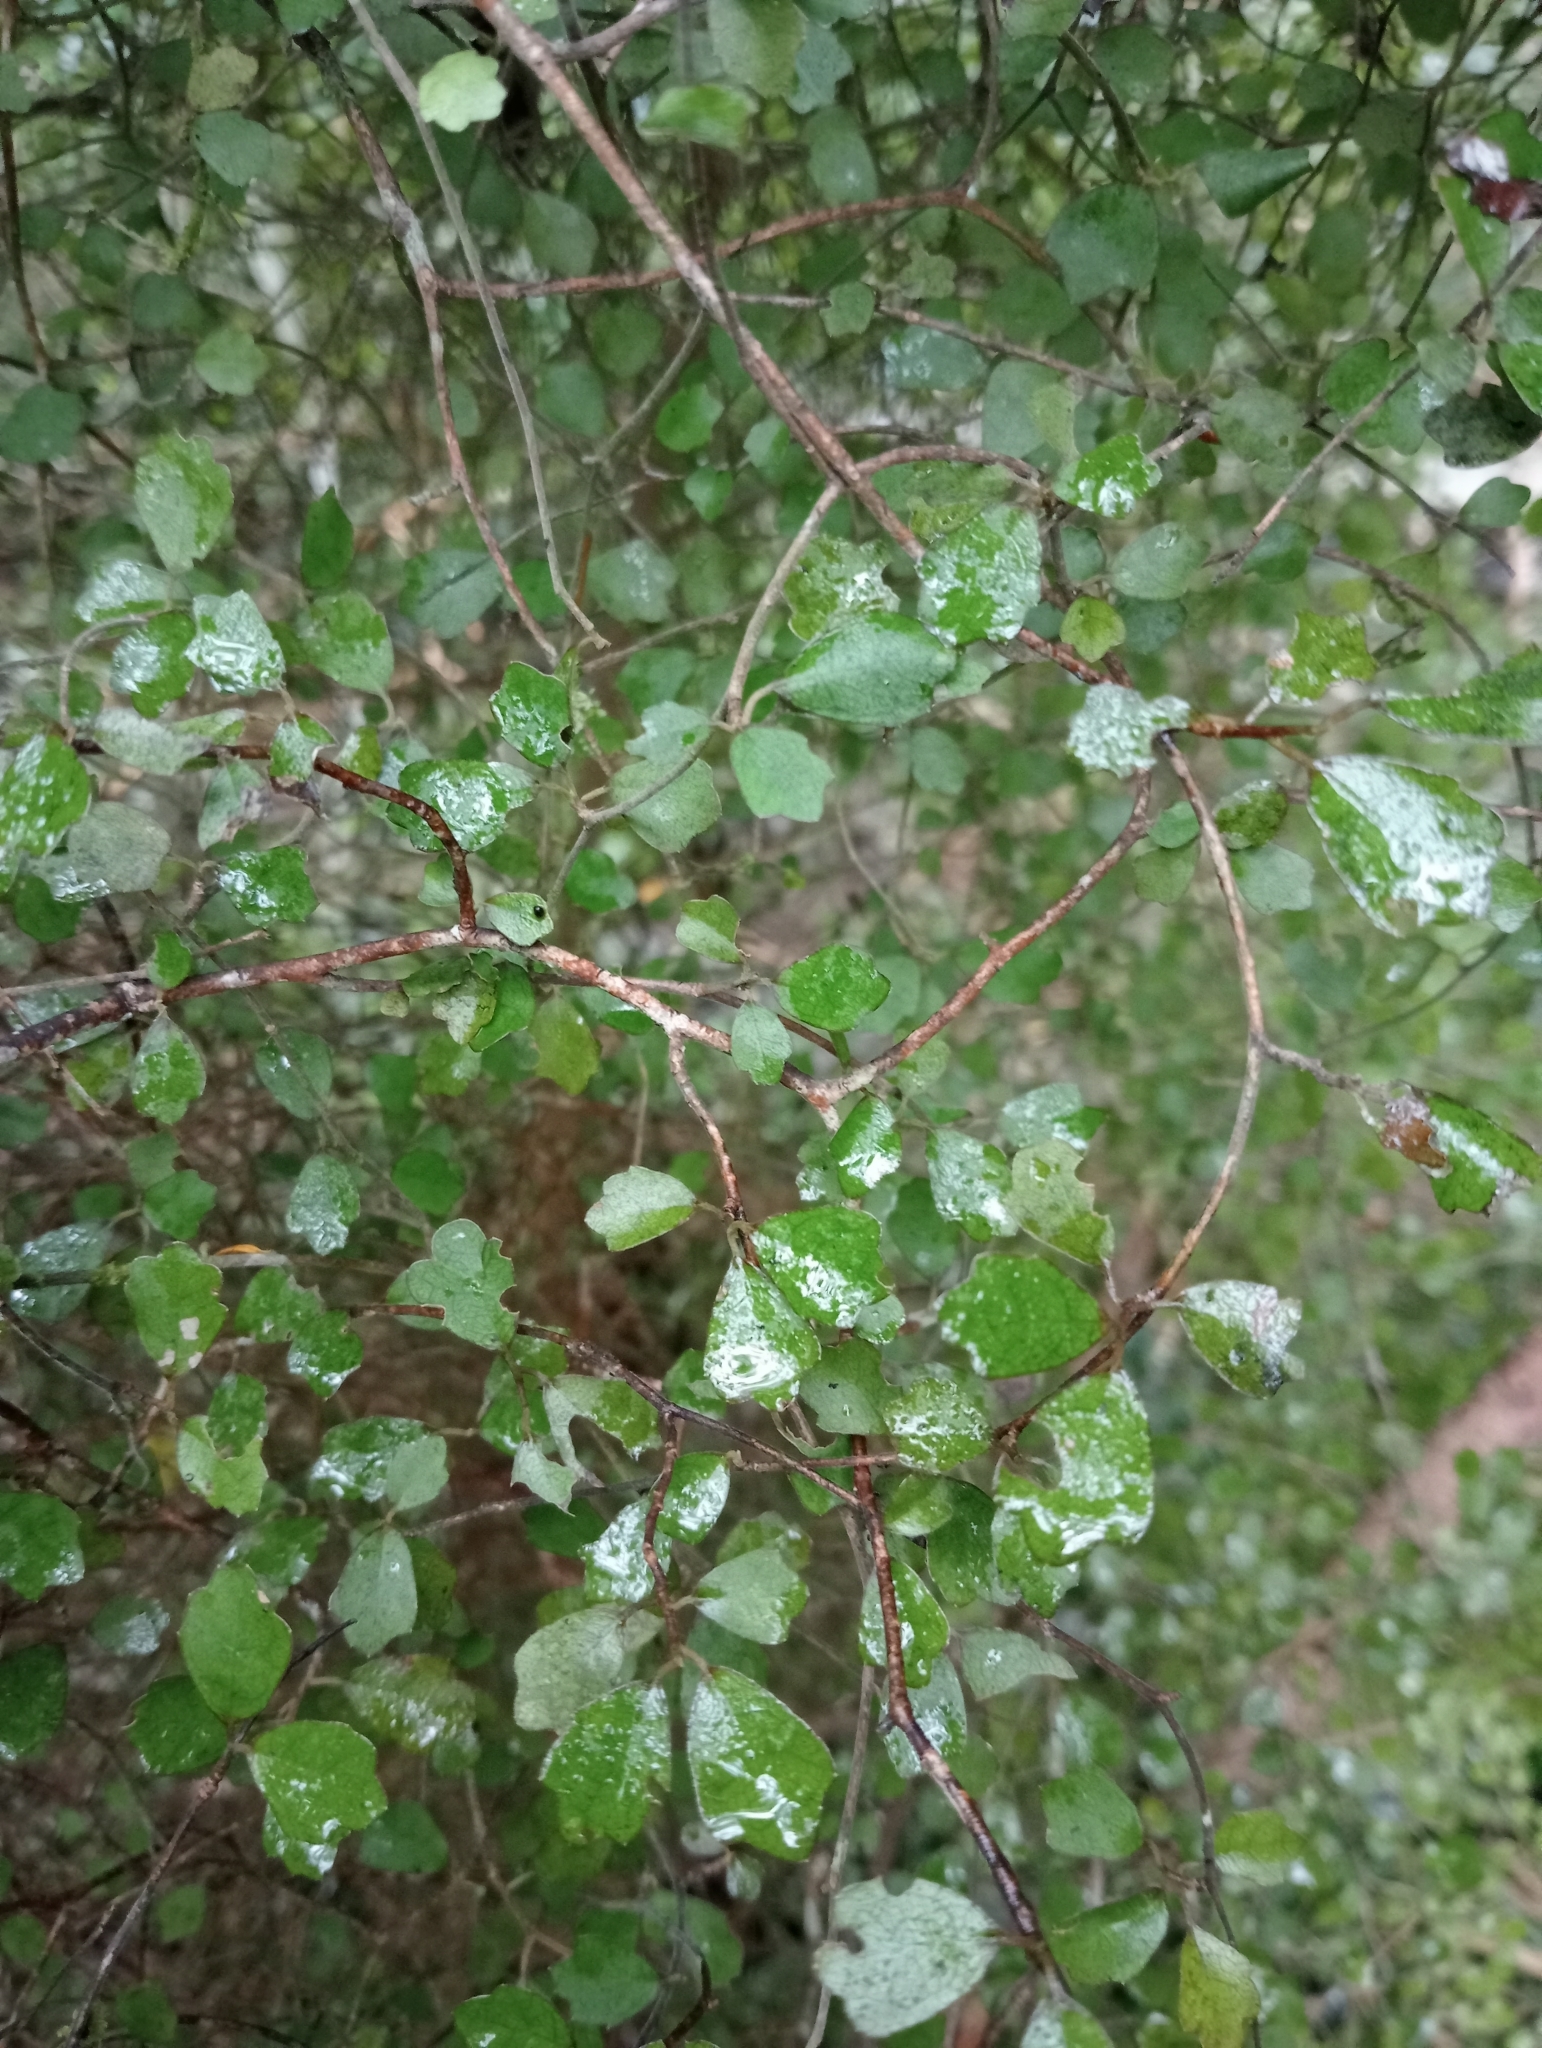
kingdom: Plantae
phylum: Tracheophyta
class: Magnoliopsida
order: Apiales
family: Pennantiaceae
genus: Pennantia
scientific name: Pennantia corymbosa
